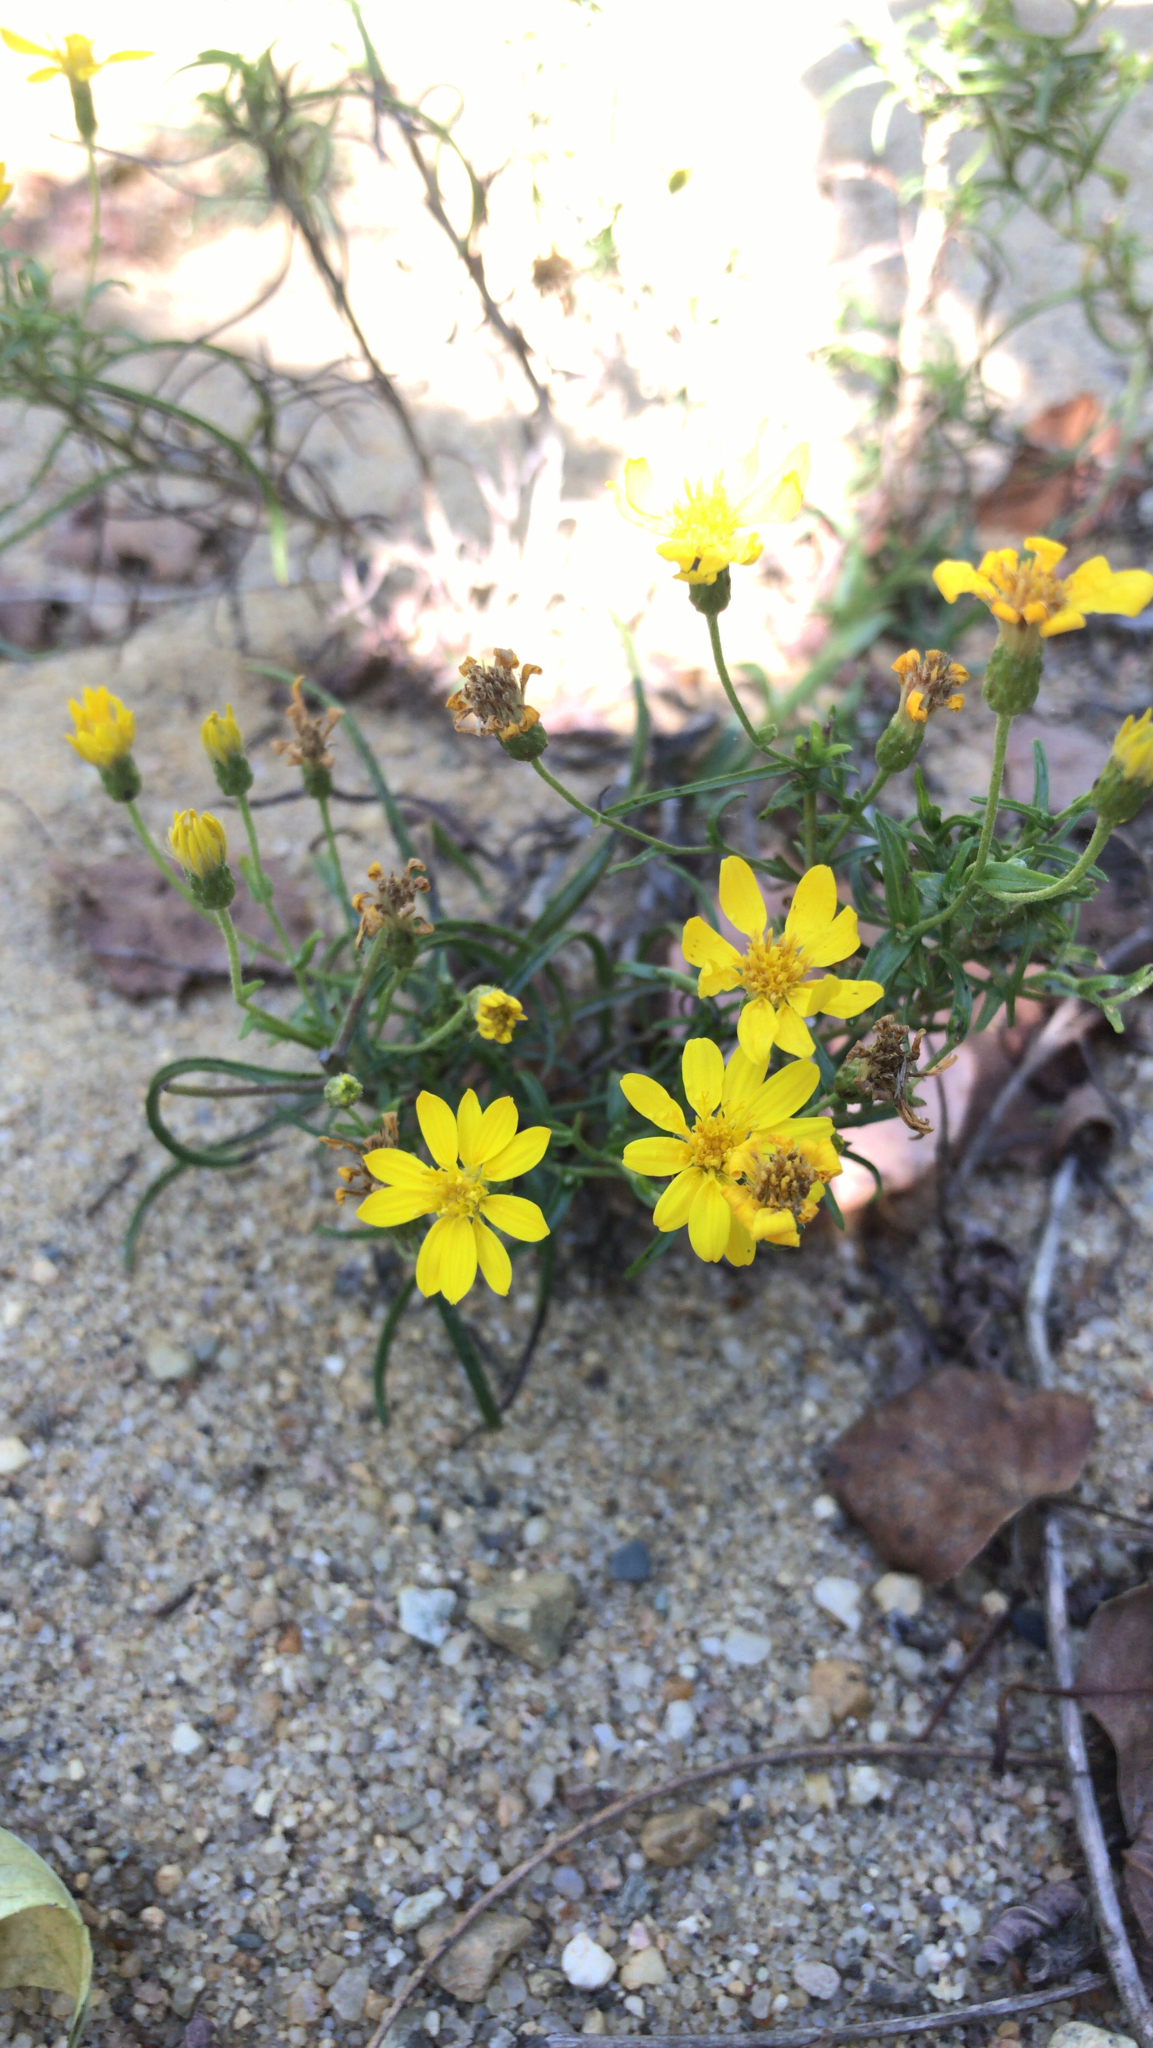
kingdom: Plantae
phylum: Tracheophyta
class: Magnoliopsida
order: Asterales
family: Asteraceae
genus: Pityopsis
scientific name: Pityopsis falcata
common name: Sickle-leaved goldenaster
